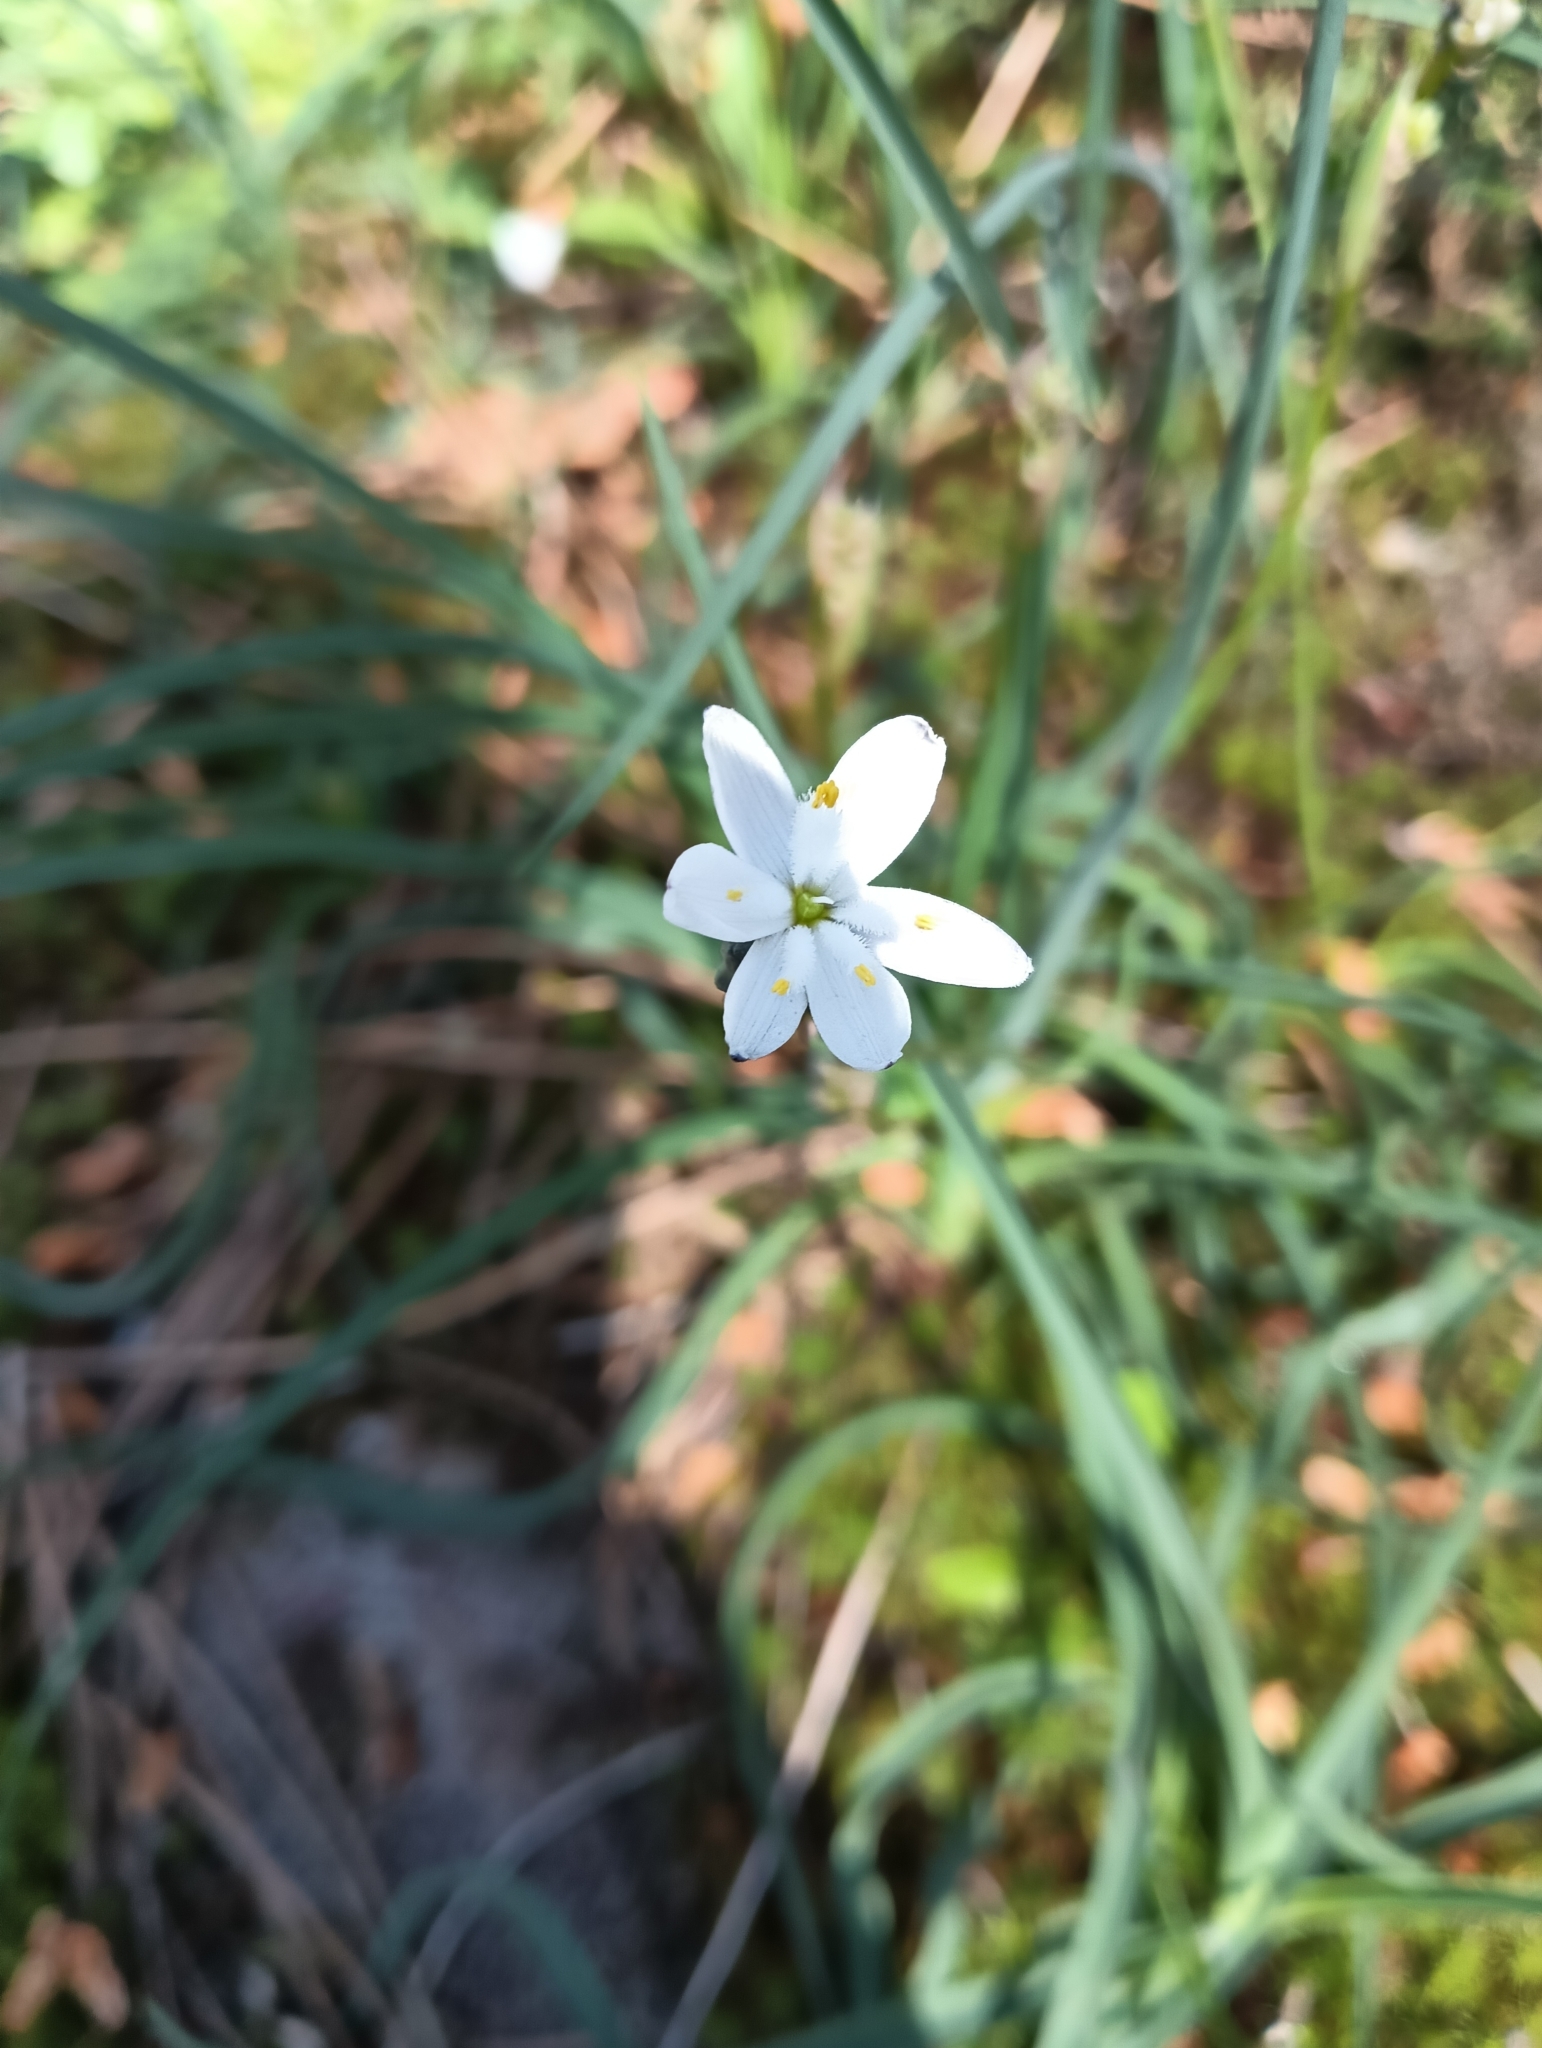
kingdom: Plantae
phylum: Tracheophyta
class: Liliopsida
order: Asparagales
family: Asphodelaceae
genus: Simethis
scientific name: Simethis mattiazzii
